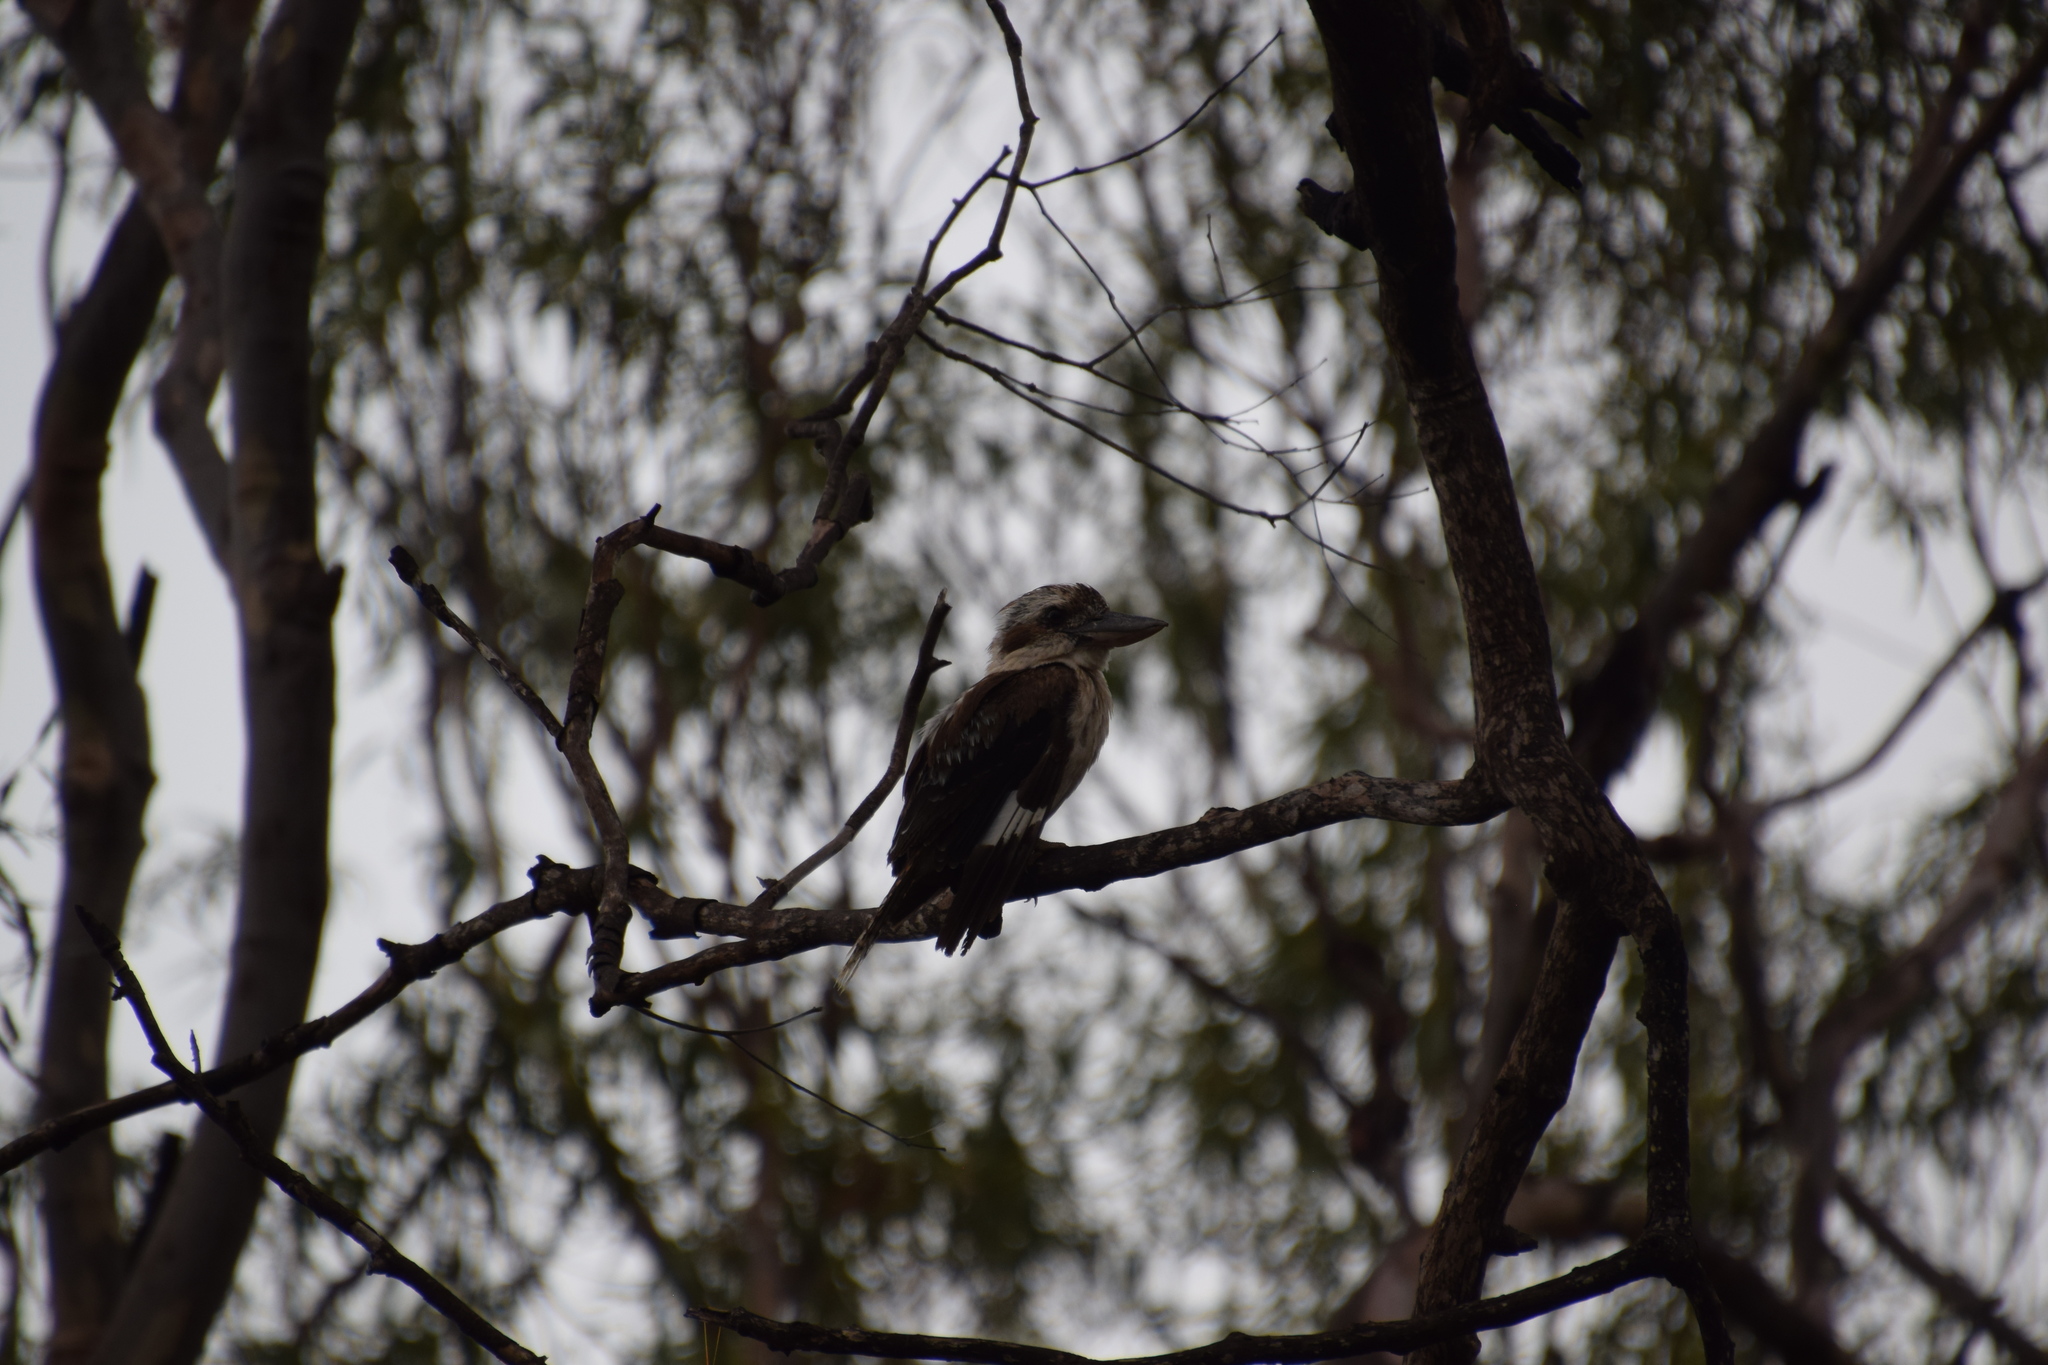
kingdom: Animalia
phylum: Chordata
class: Aves
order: Coraciiformes
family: Alcedinidae
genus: Dacelo
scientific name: Dacelo novaeguineae
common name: Laughing kookaburra
